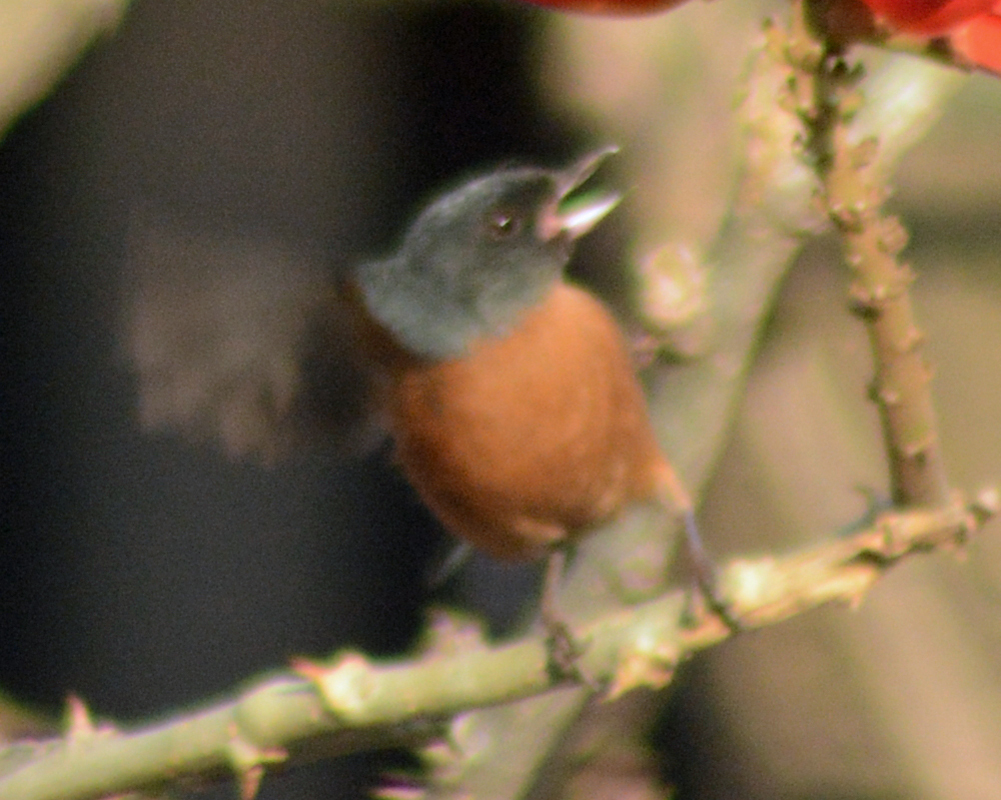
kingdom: Animalia
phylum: Chordata
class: Aves
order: Passeriformes
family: Thraupidae
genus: Diglossa
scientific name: Diglossa baritula
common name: Cinnamon-bellied flowerpiercer
